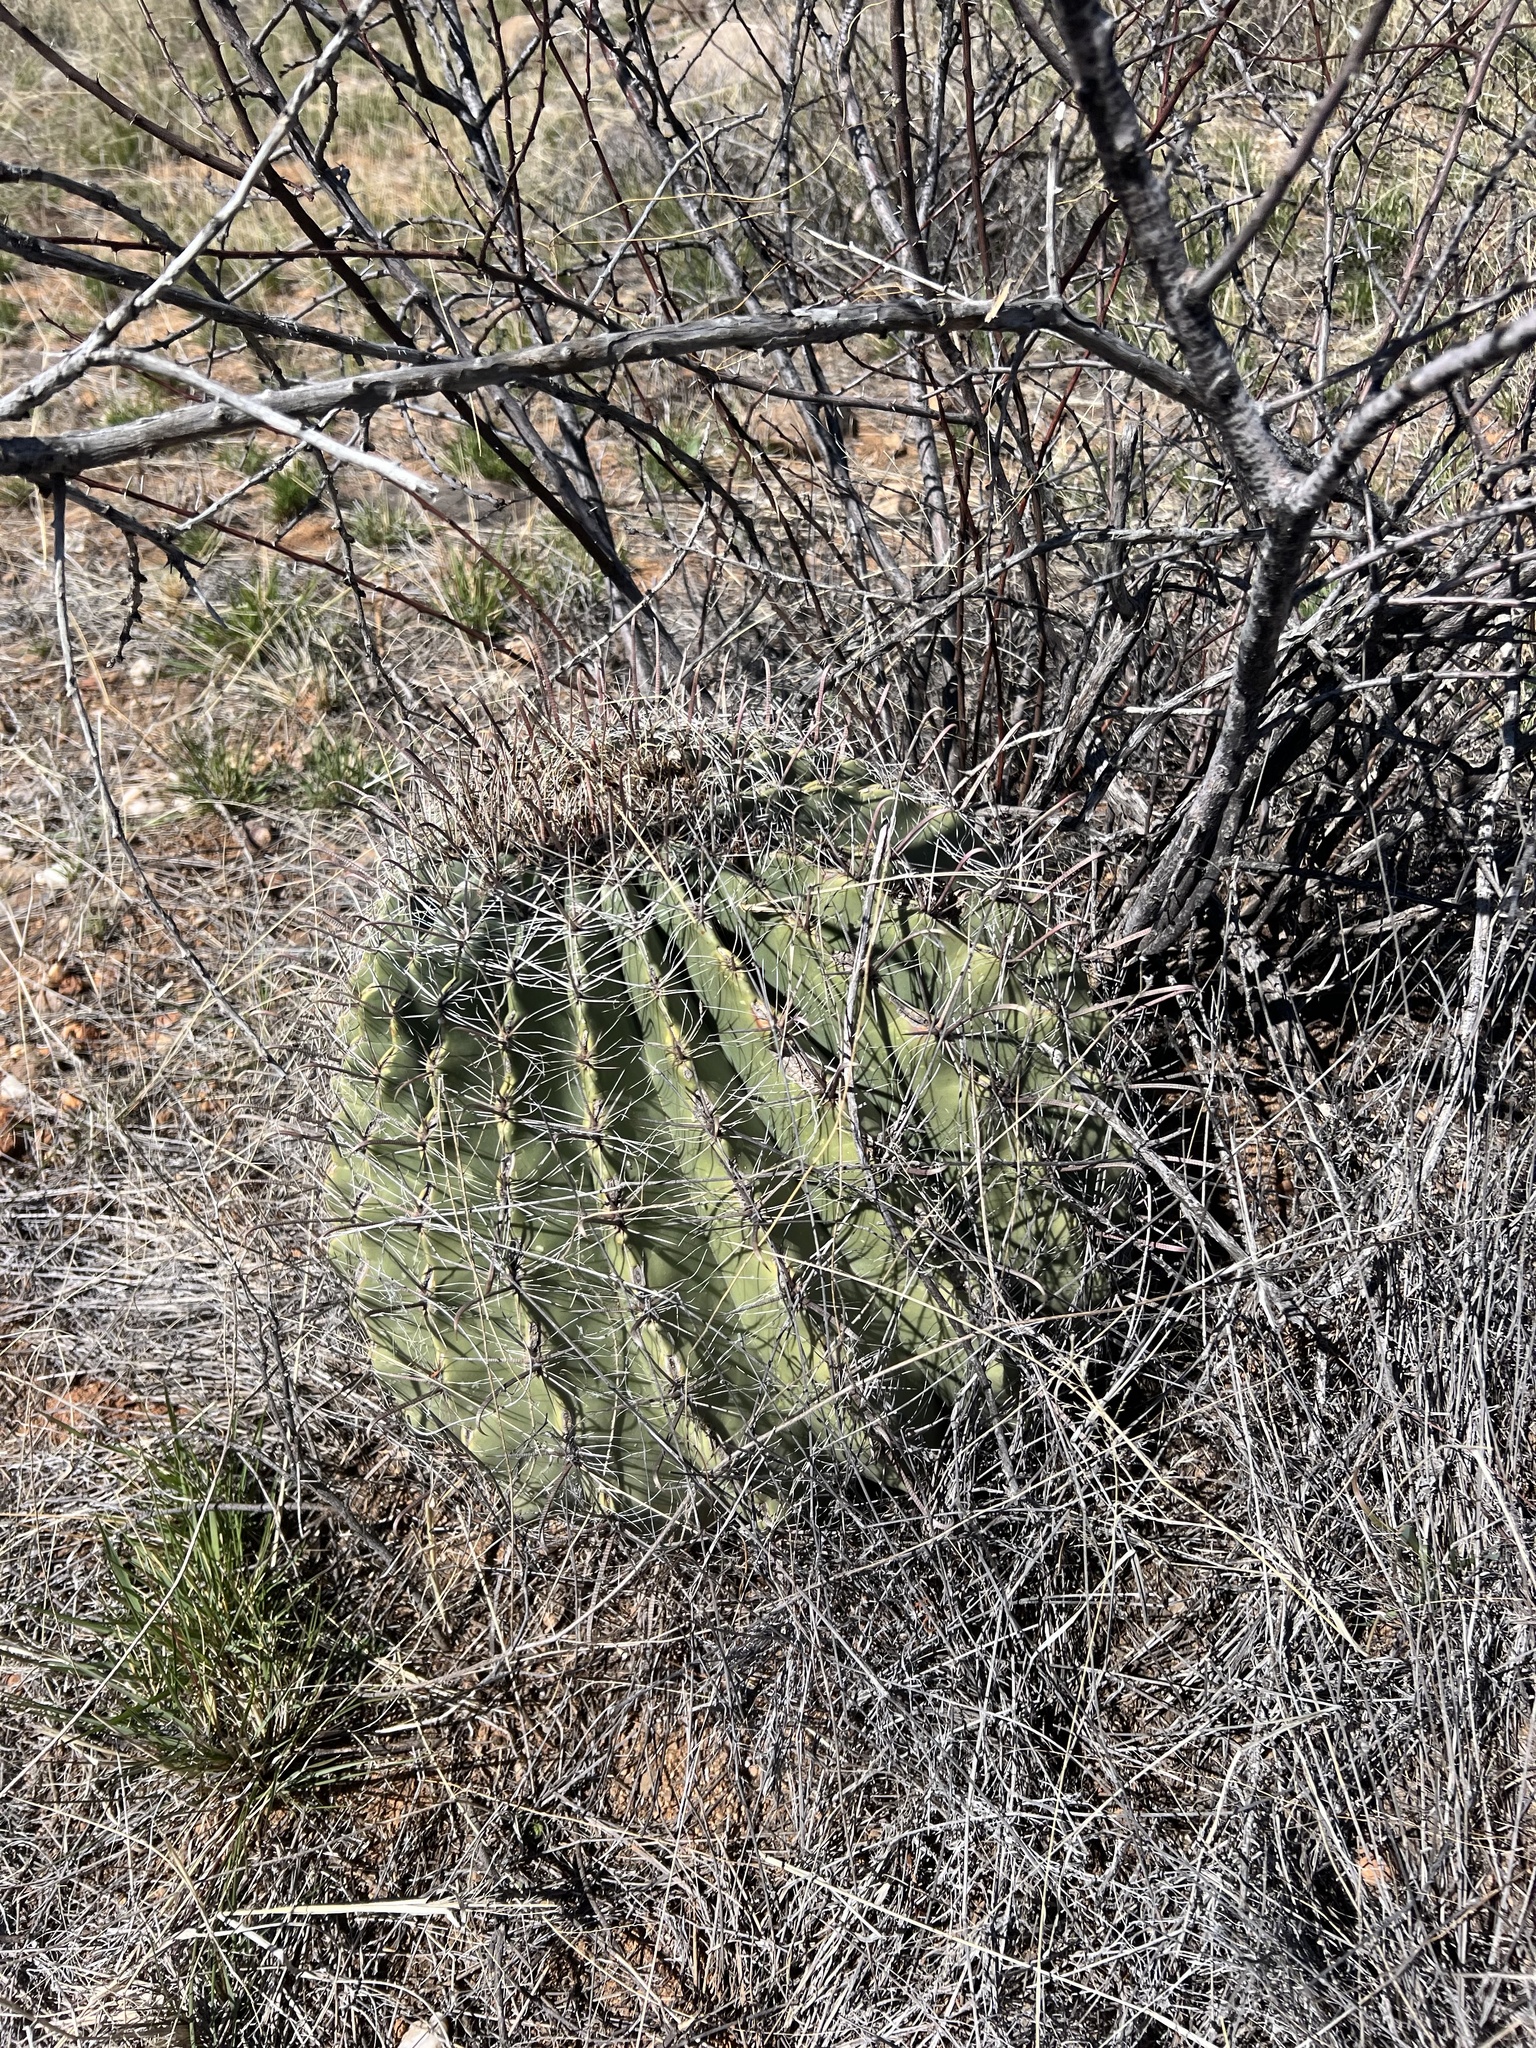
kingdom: Plantae
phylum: Tracheophyta
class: Magnoliopsida
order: Caryophyllales
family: Cactaceae
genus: Ferocactus
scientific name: Ferocactus wislizeni
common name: Candy barrel cactus
